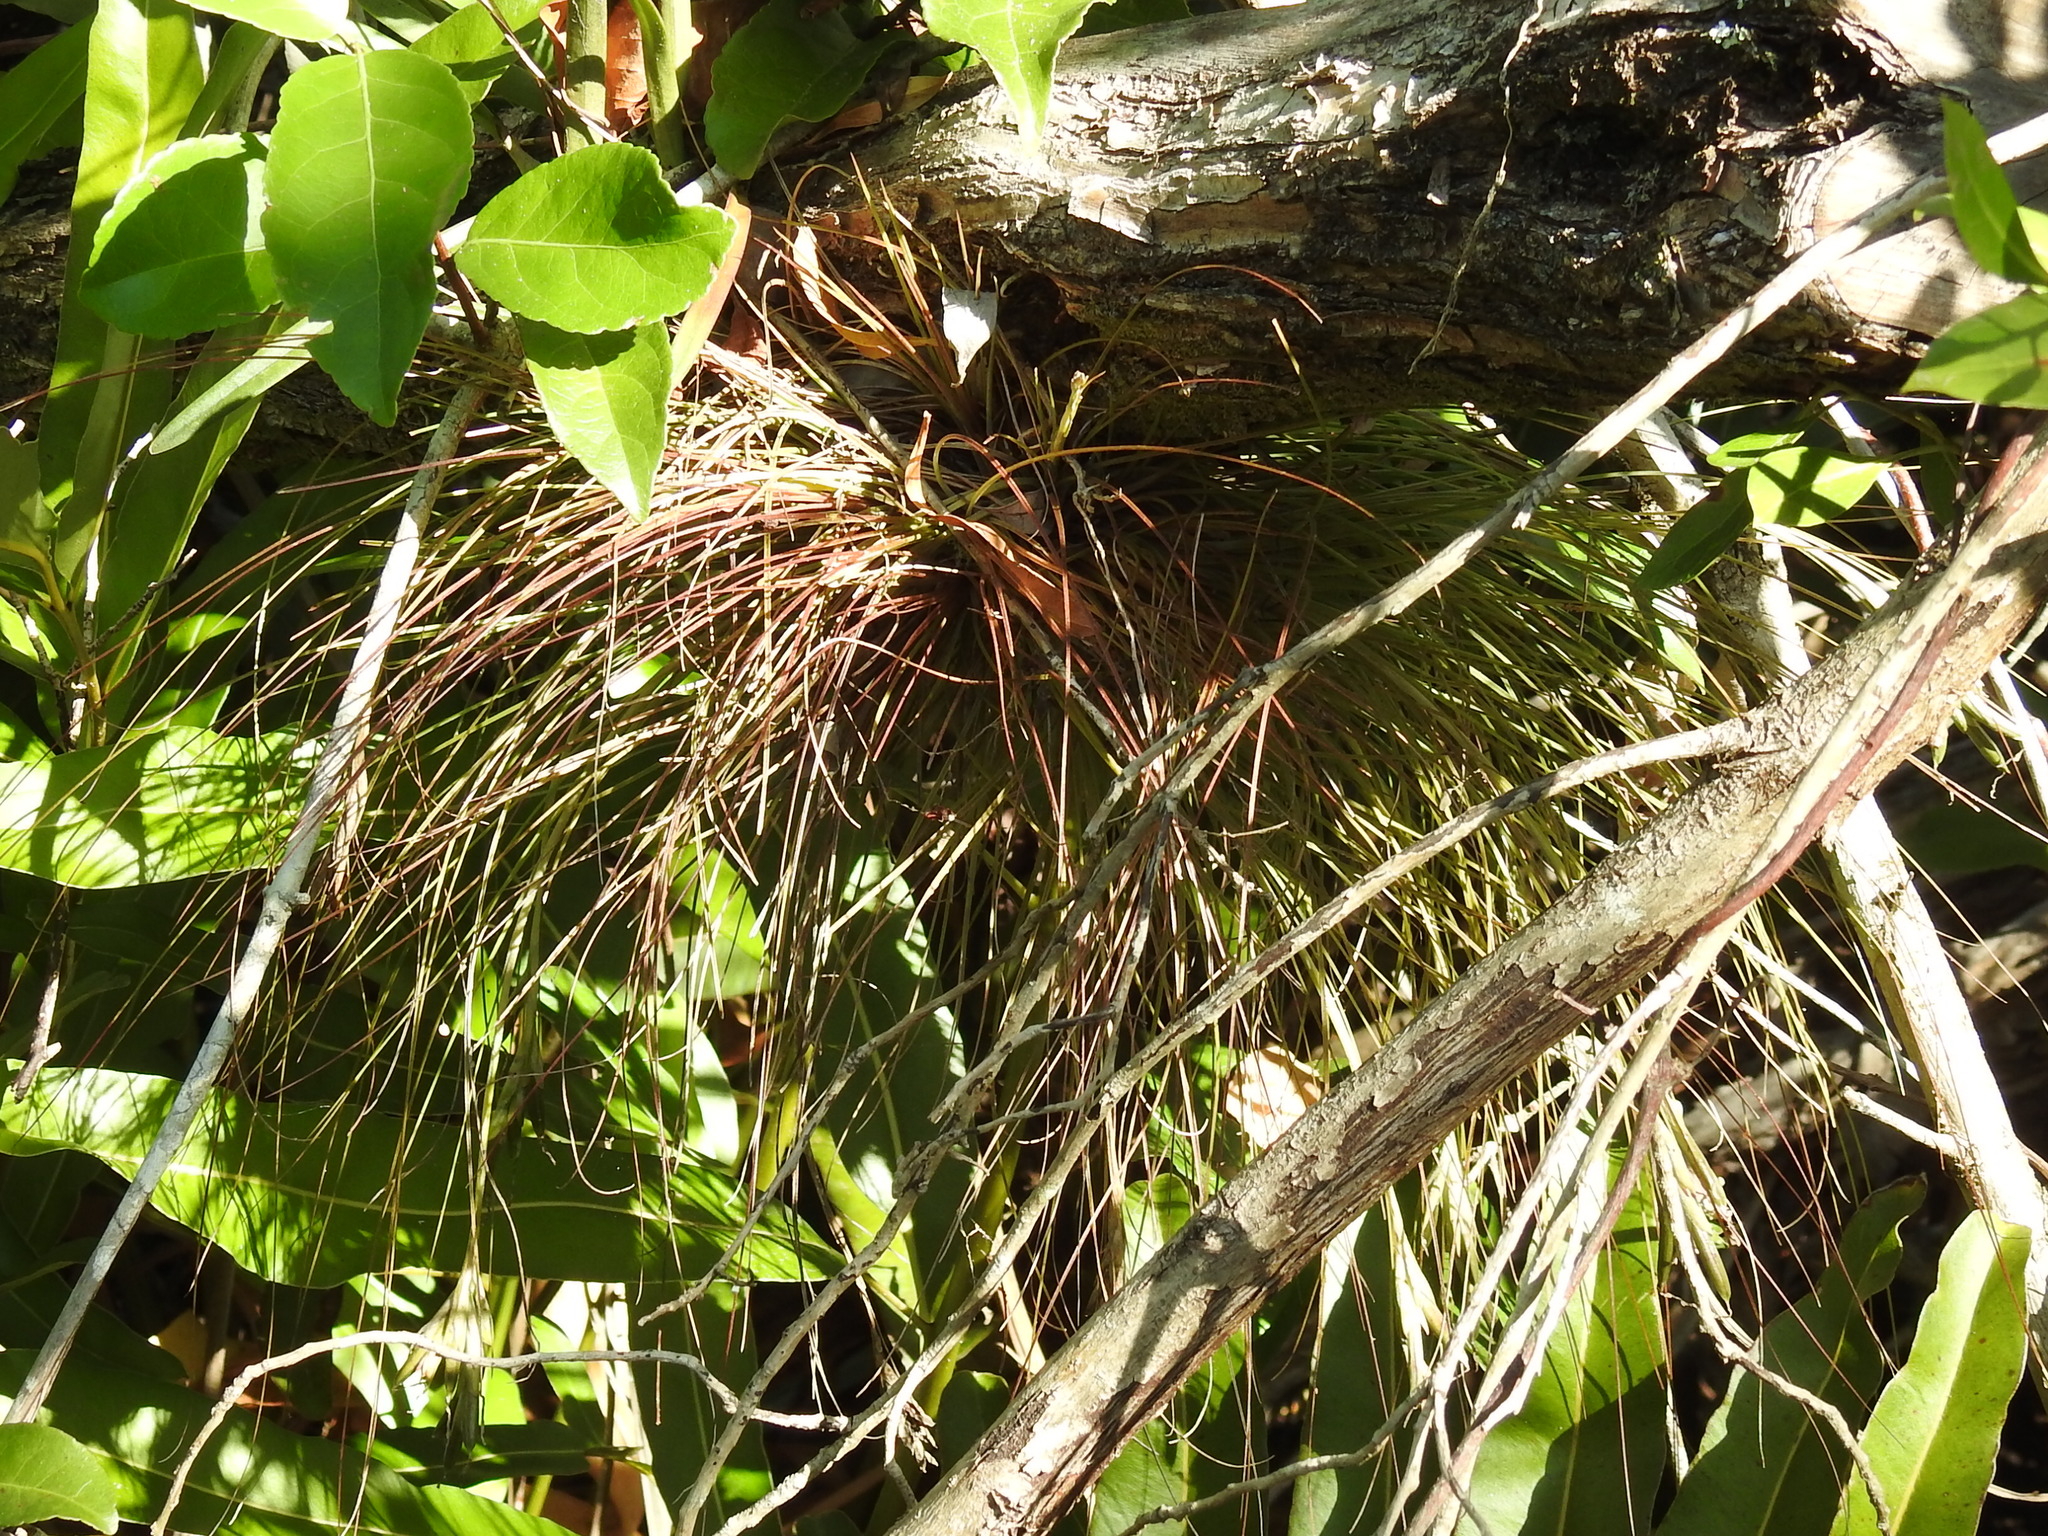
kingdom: Plantae
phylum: Tracheophyta
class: Liliopsida
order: Asparagales
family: Orchidaceae
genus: Encyclia
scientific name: Encyclia tampensis
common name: Florida butterfly orchid
